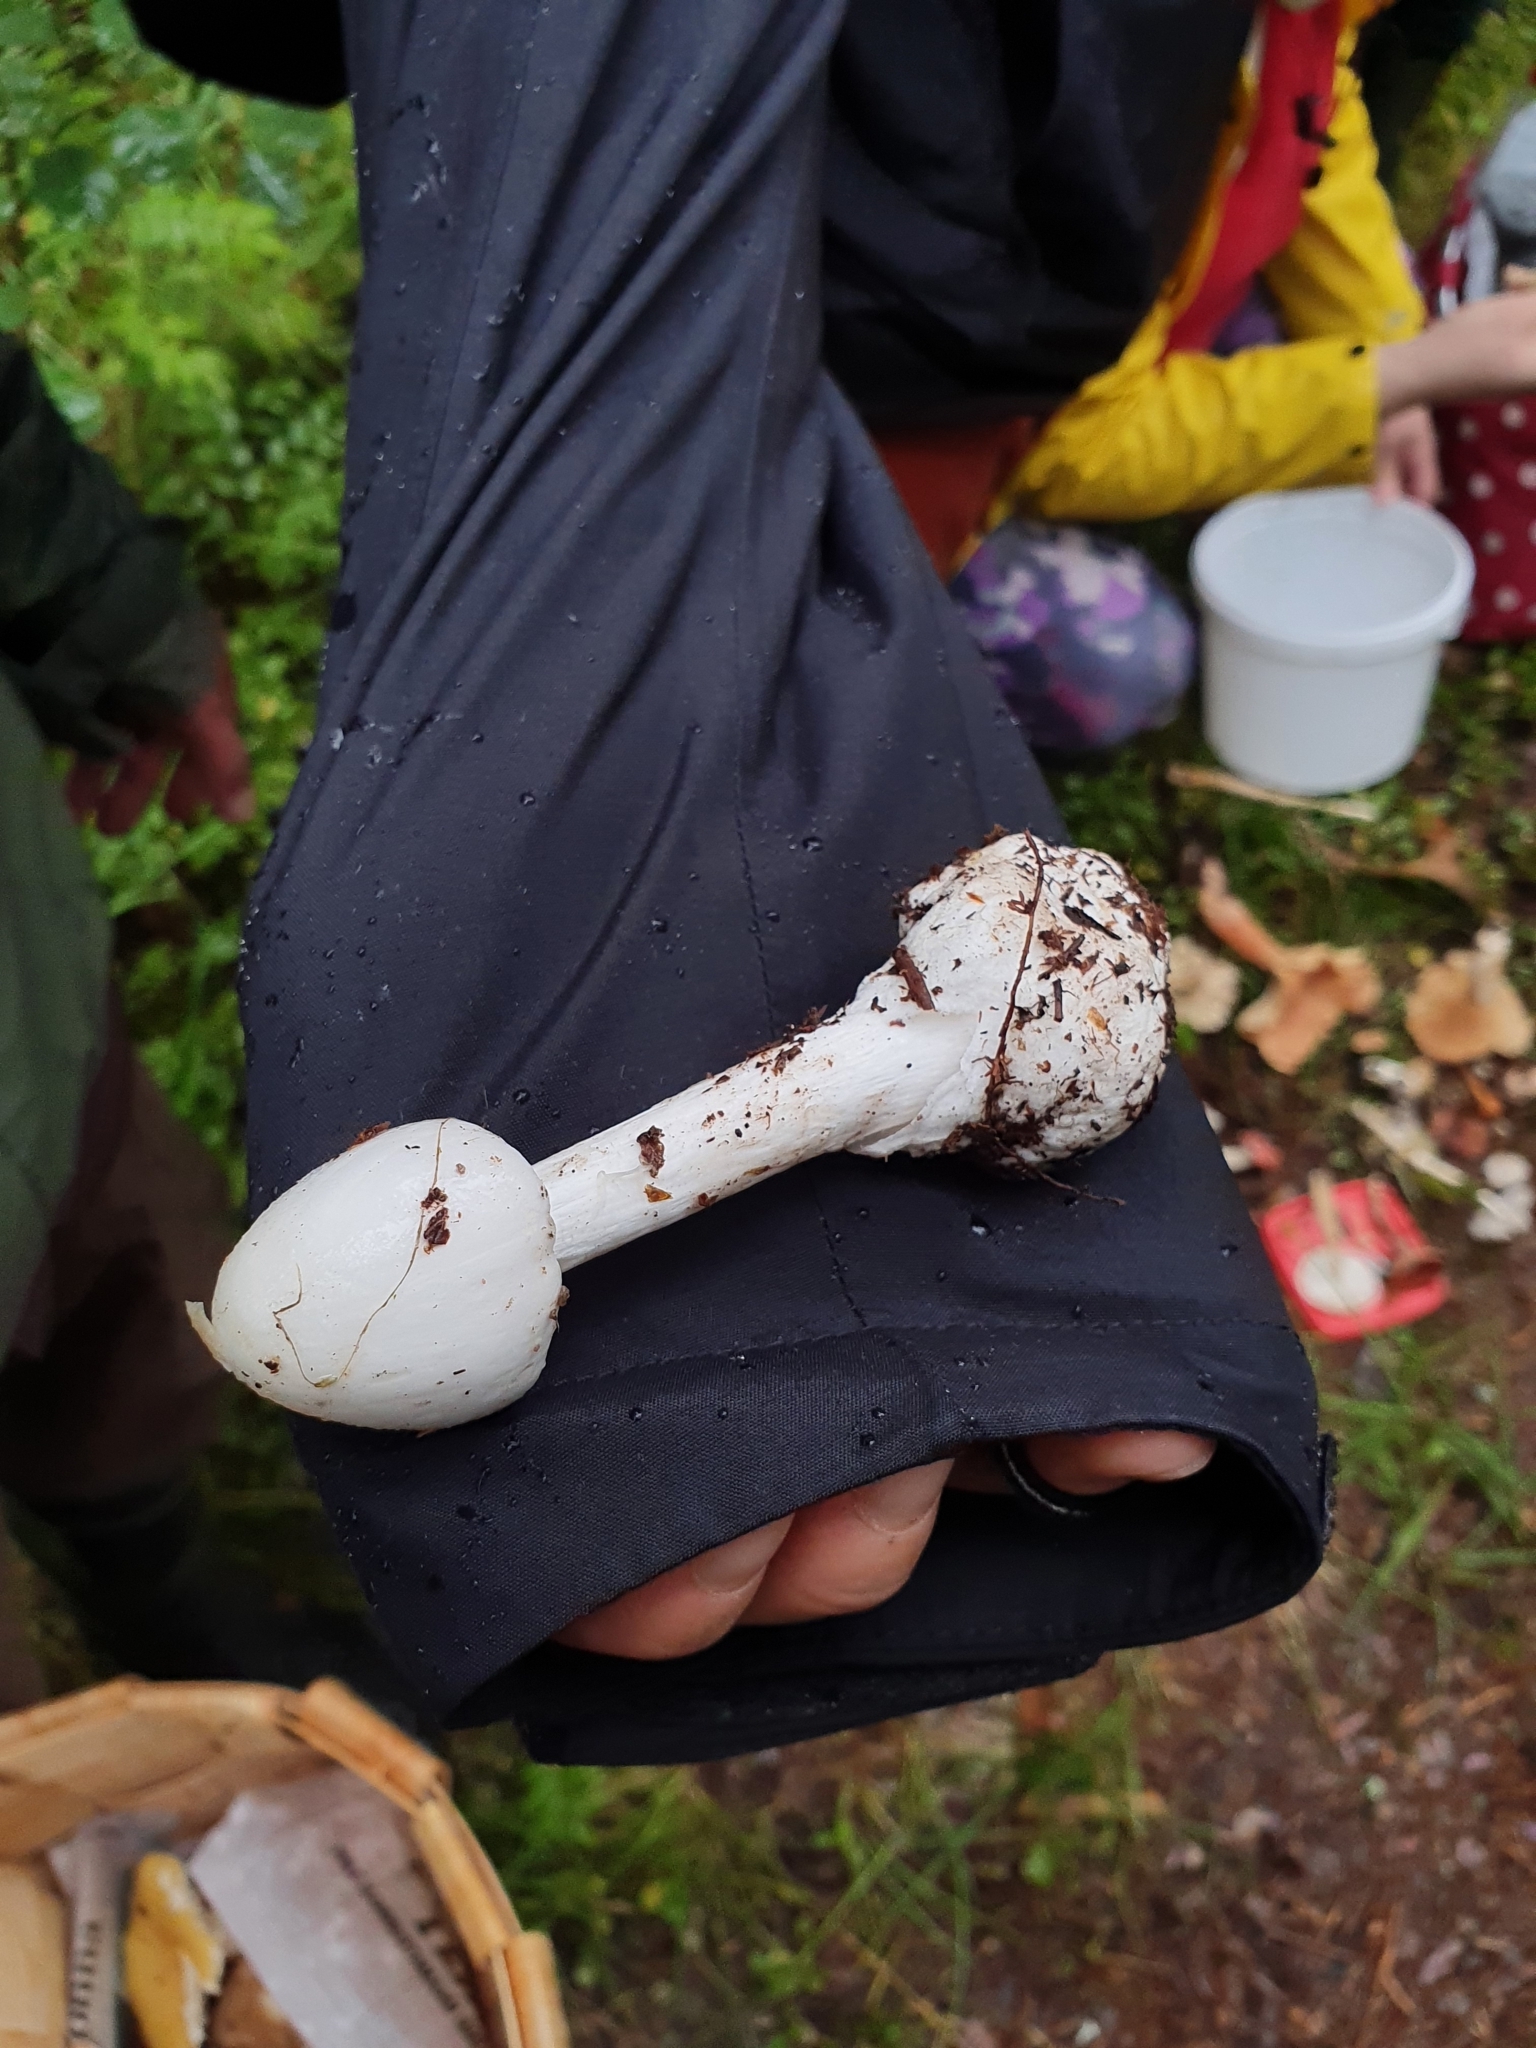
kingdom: Fungi
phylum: Basidiomycota
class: Agaricomycetes
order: Agaricales
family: Amanitaceae
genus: Amanita
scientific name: Amanita virosa
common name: Destroying angel
